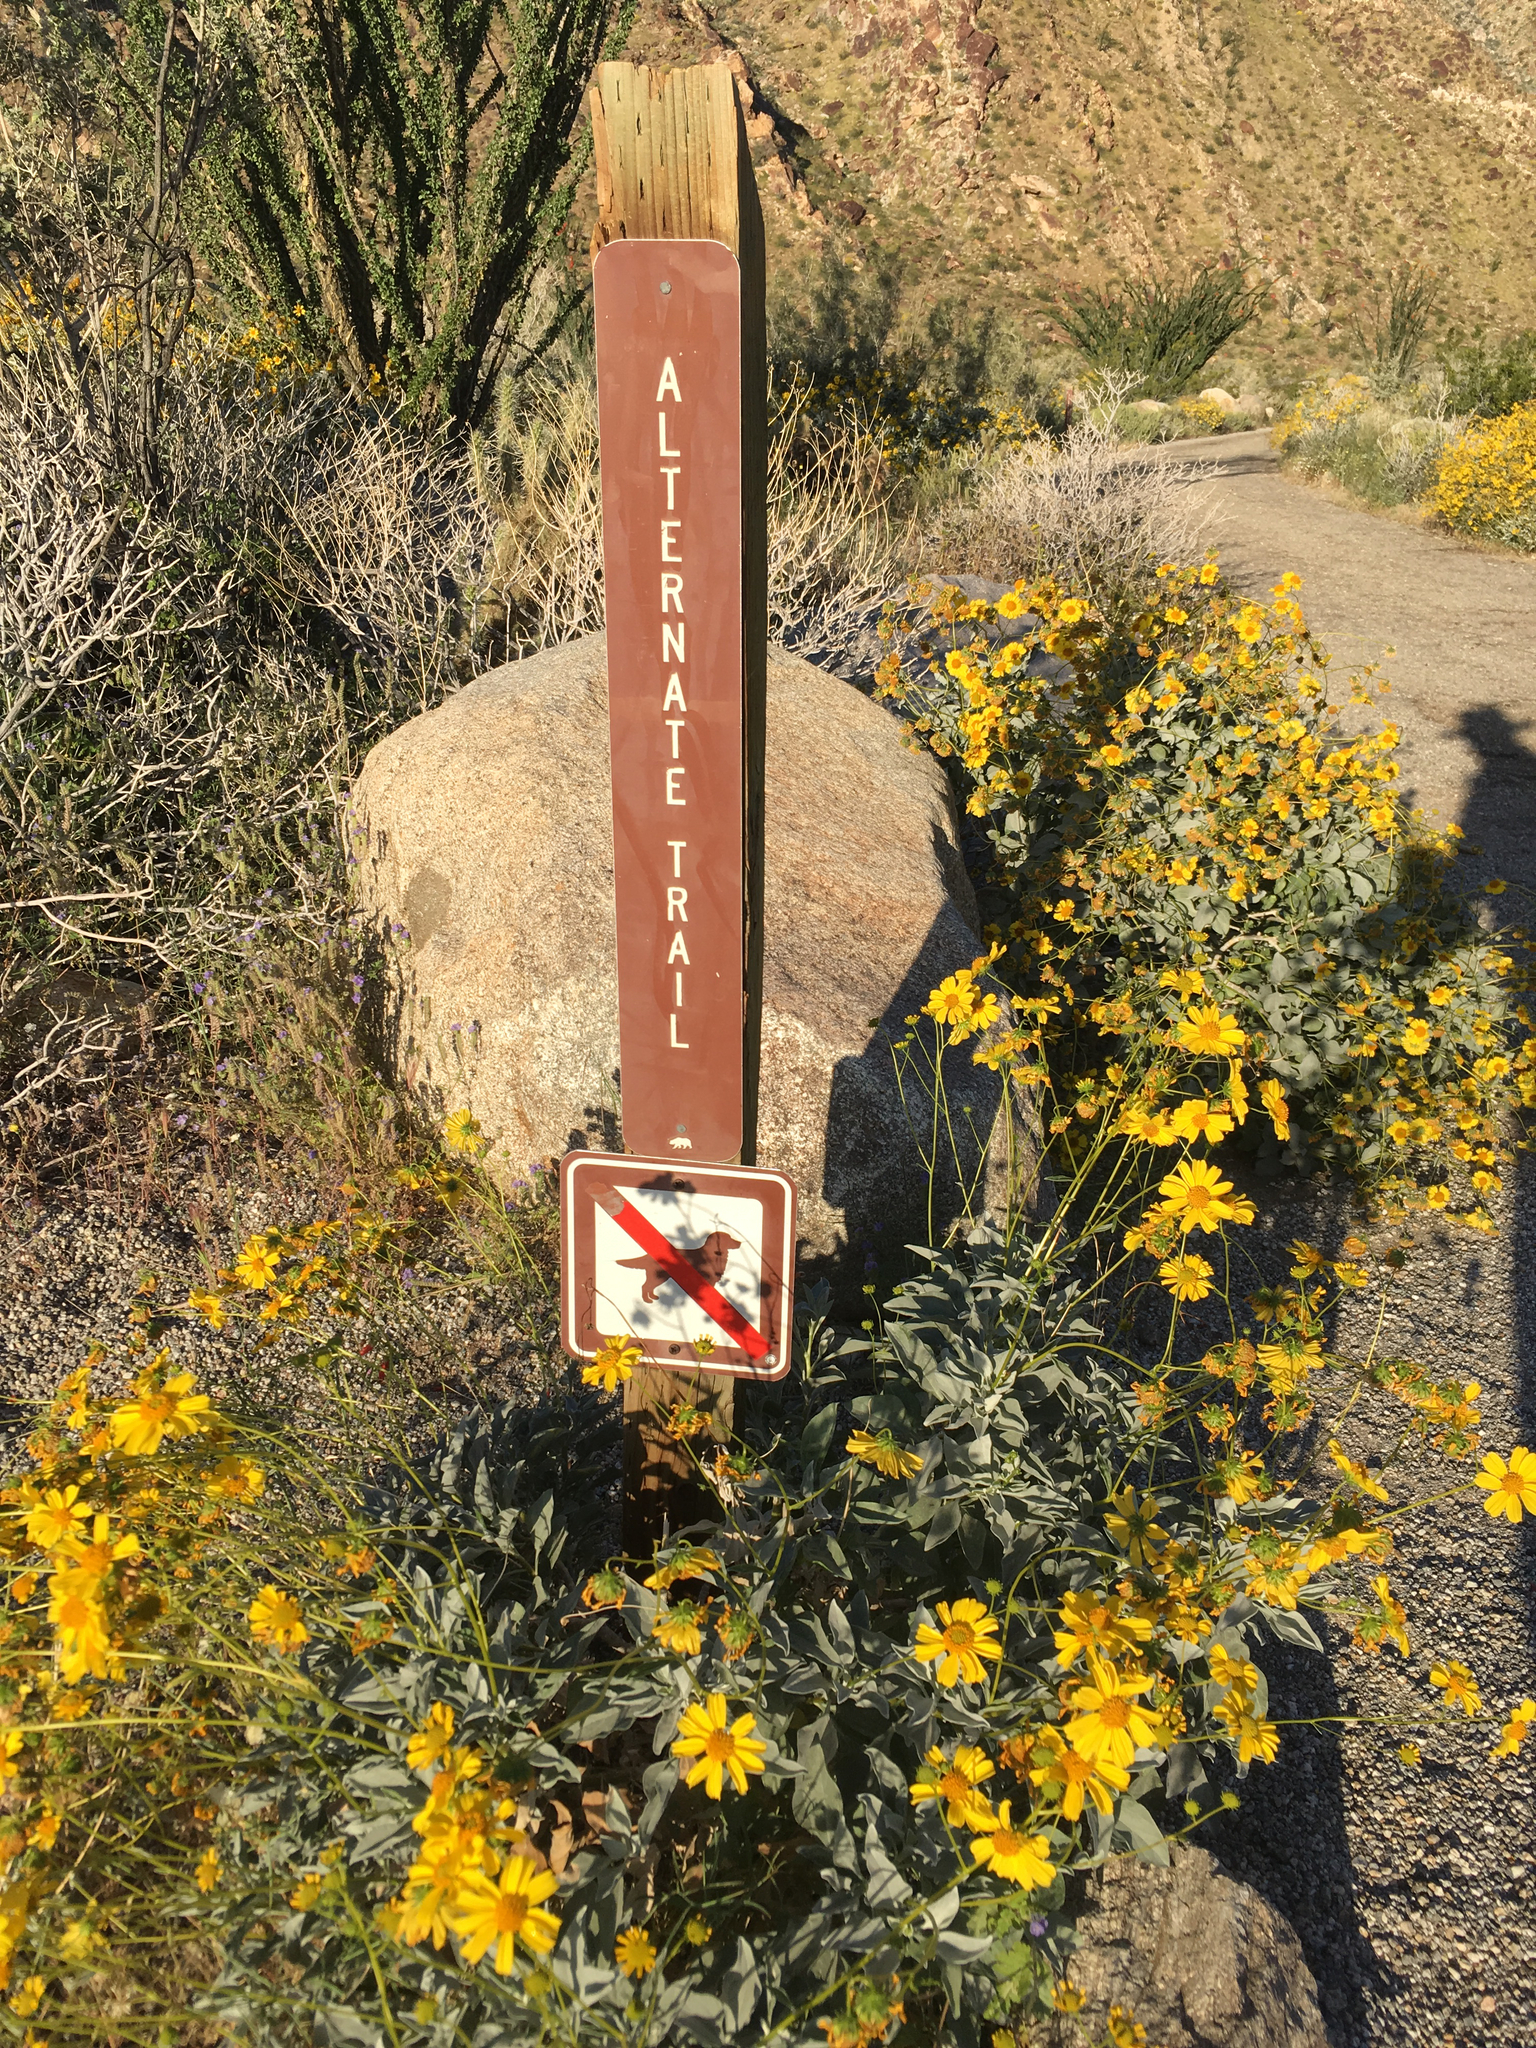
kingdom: Plantae
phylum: Tracheophyta
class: Magnoliopsida
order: Asterales
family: Asteraceae
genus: Encelia
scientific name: Encelia farinosa
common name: Brittlebush
